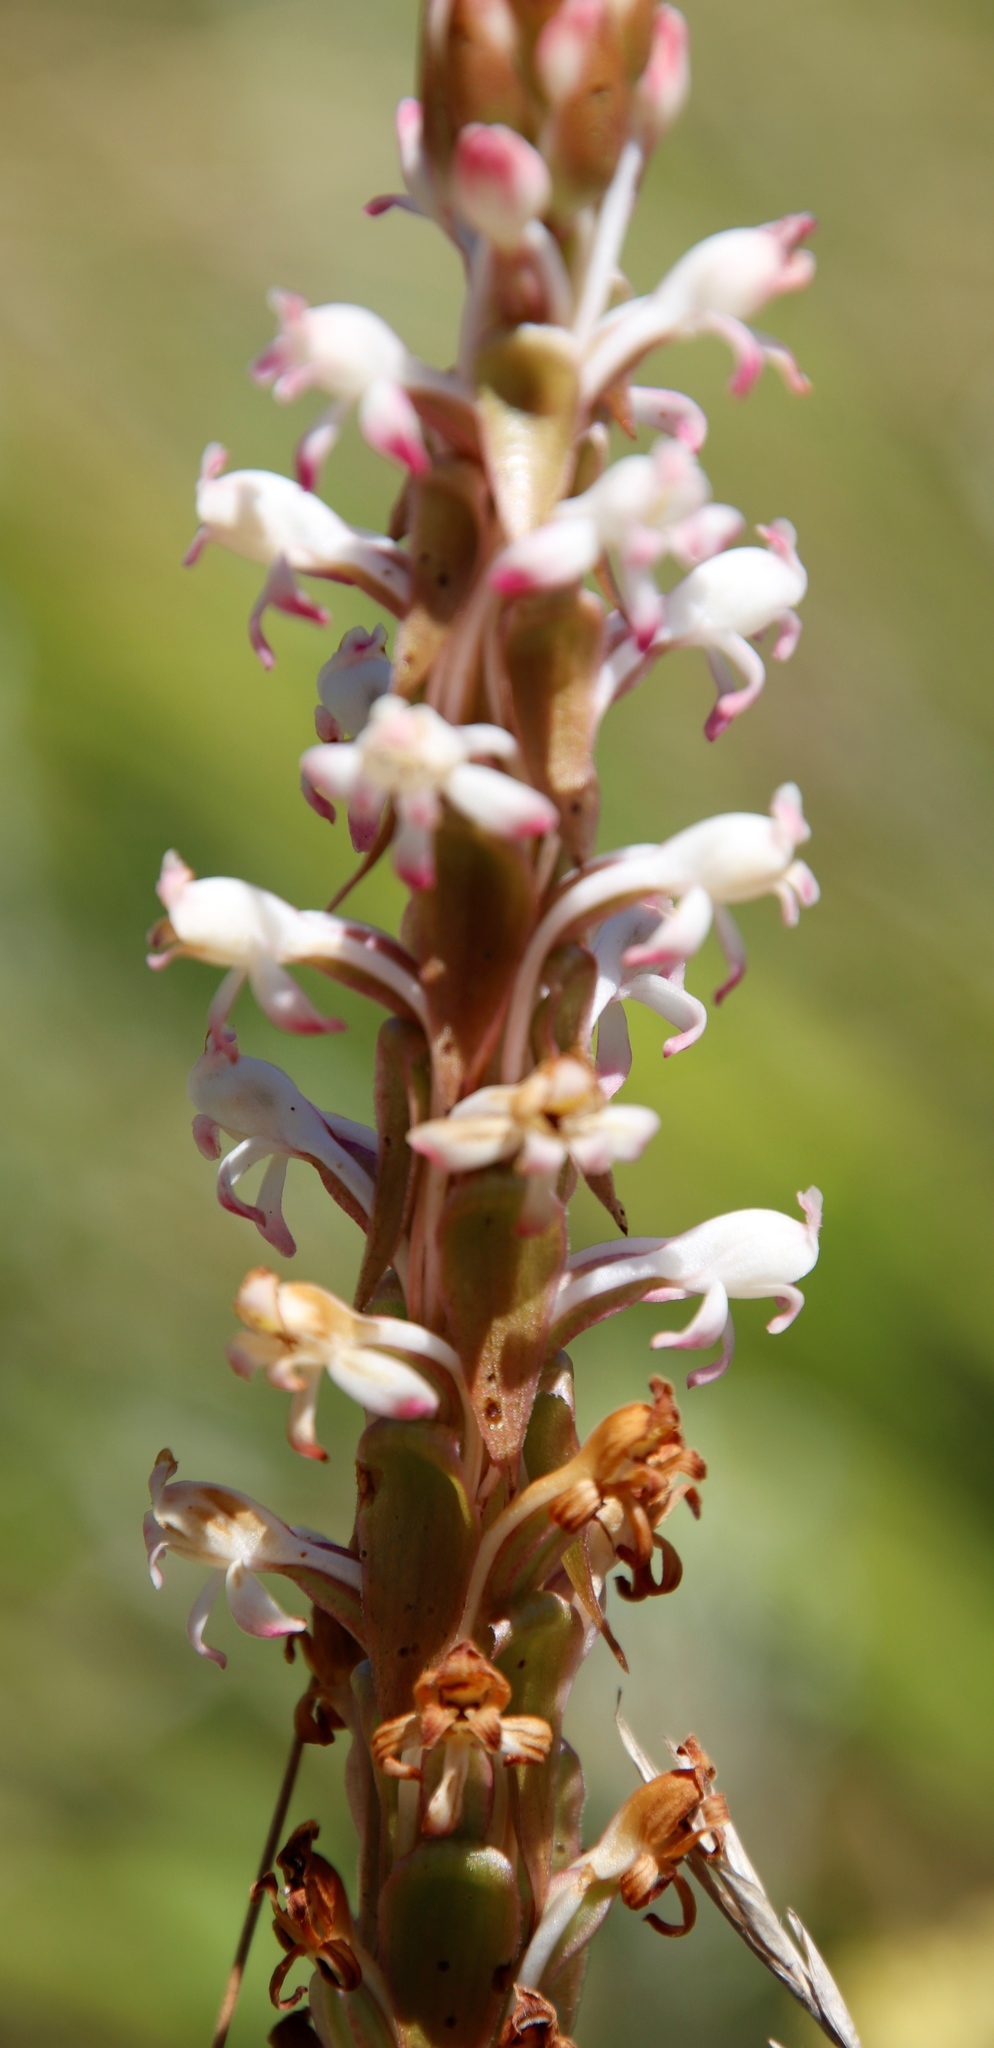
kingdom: Plantae
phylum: Tracheophyta
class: Liliopsida
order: Asparagales
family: Orchidaceae
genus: Satyrium
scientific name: Satyrium longicauda
